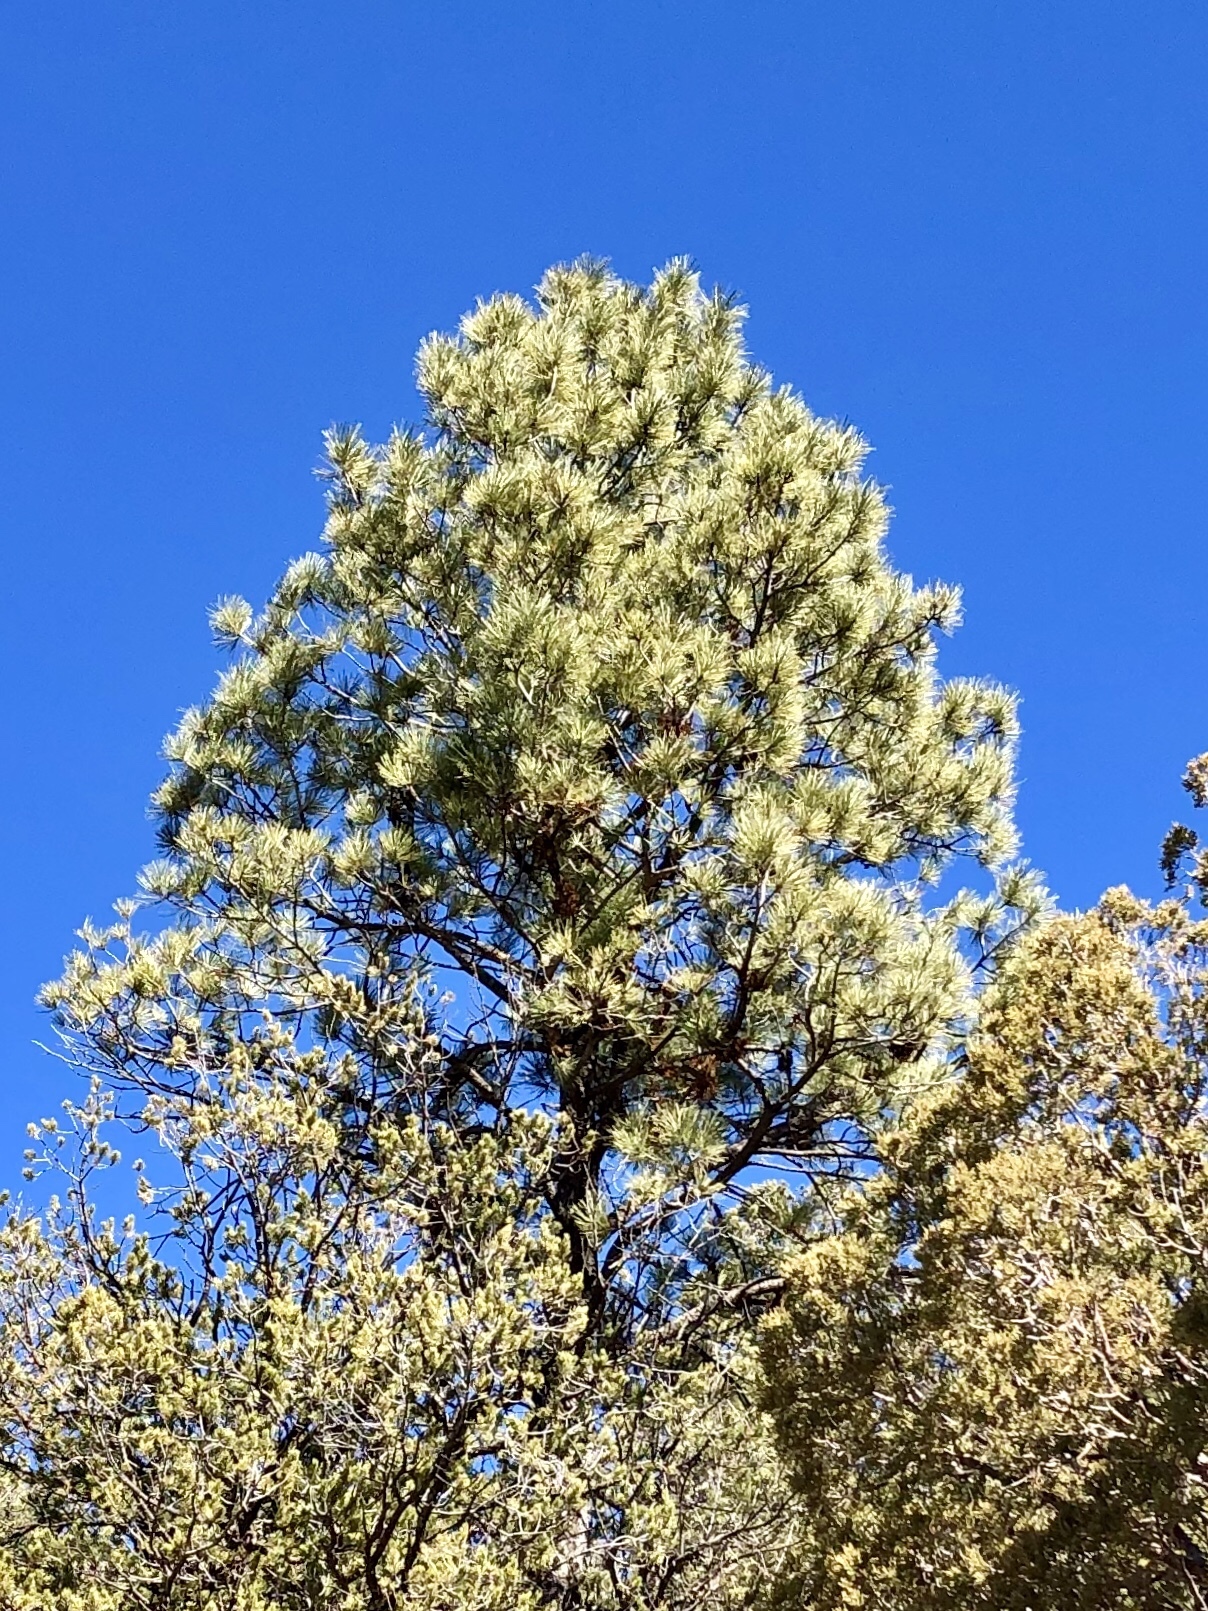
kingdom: Plantae
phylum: Tracheophyta
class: Pinopsida
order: Pinales
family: Pinaceae
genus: Pinus
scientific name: Pinus ponderosa
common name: Western yellow-pine
